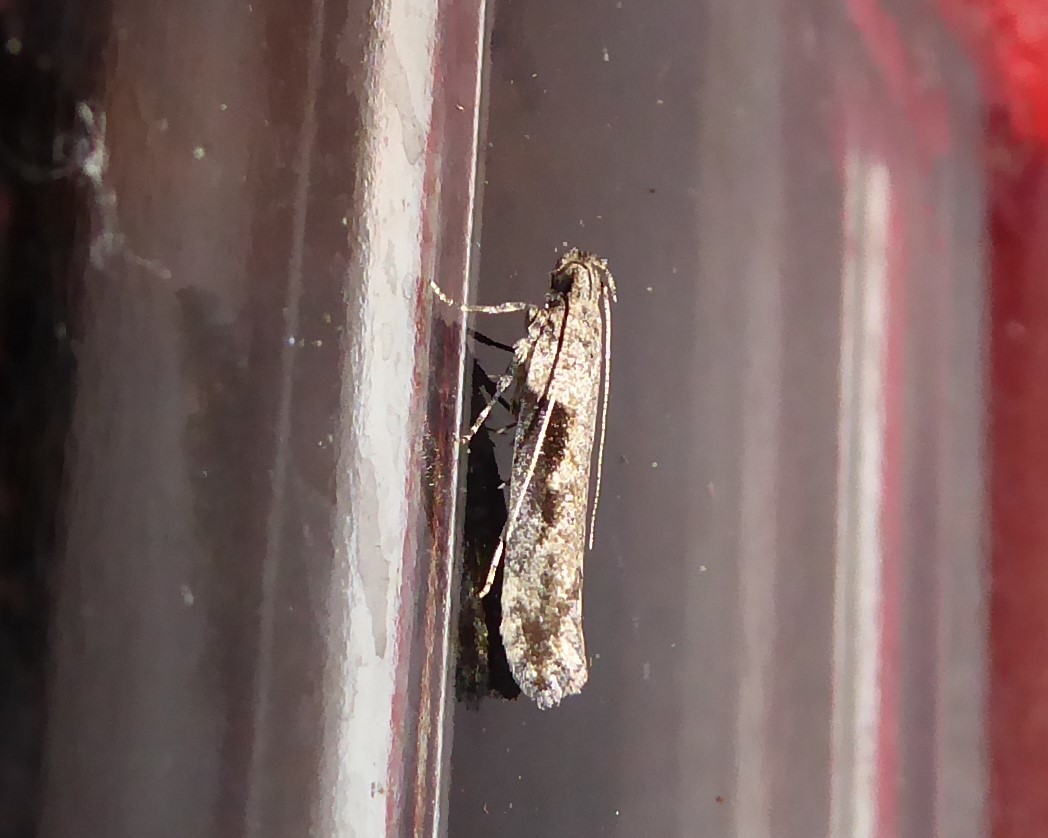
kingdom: Animalia
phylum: Arthropoda
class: Insecta
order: Lepidoptera
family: Gelechiidae
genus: Symmetrischema
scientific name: Symmetrischema tangolias
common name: Moth
